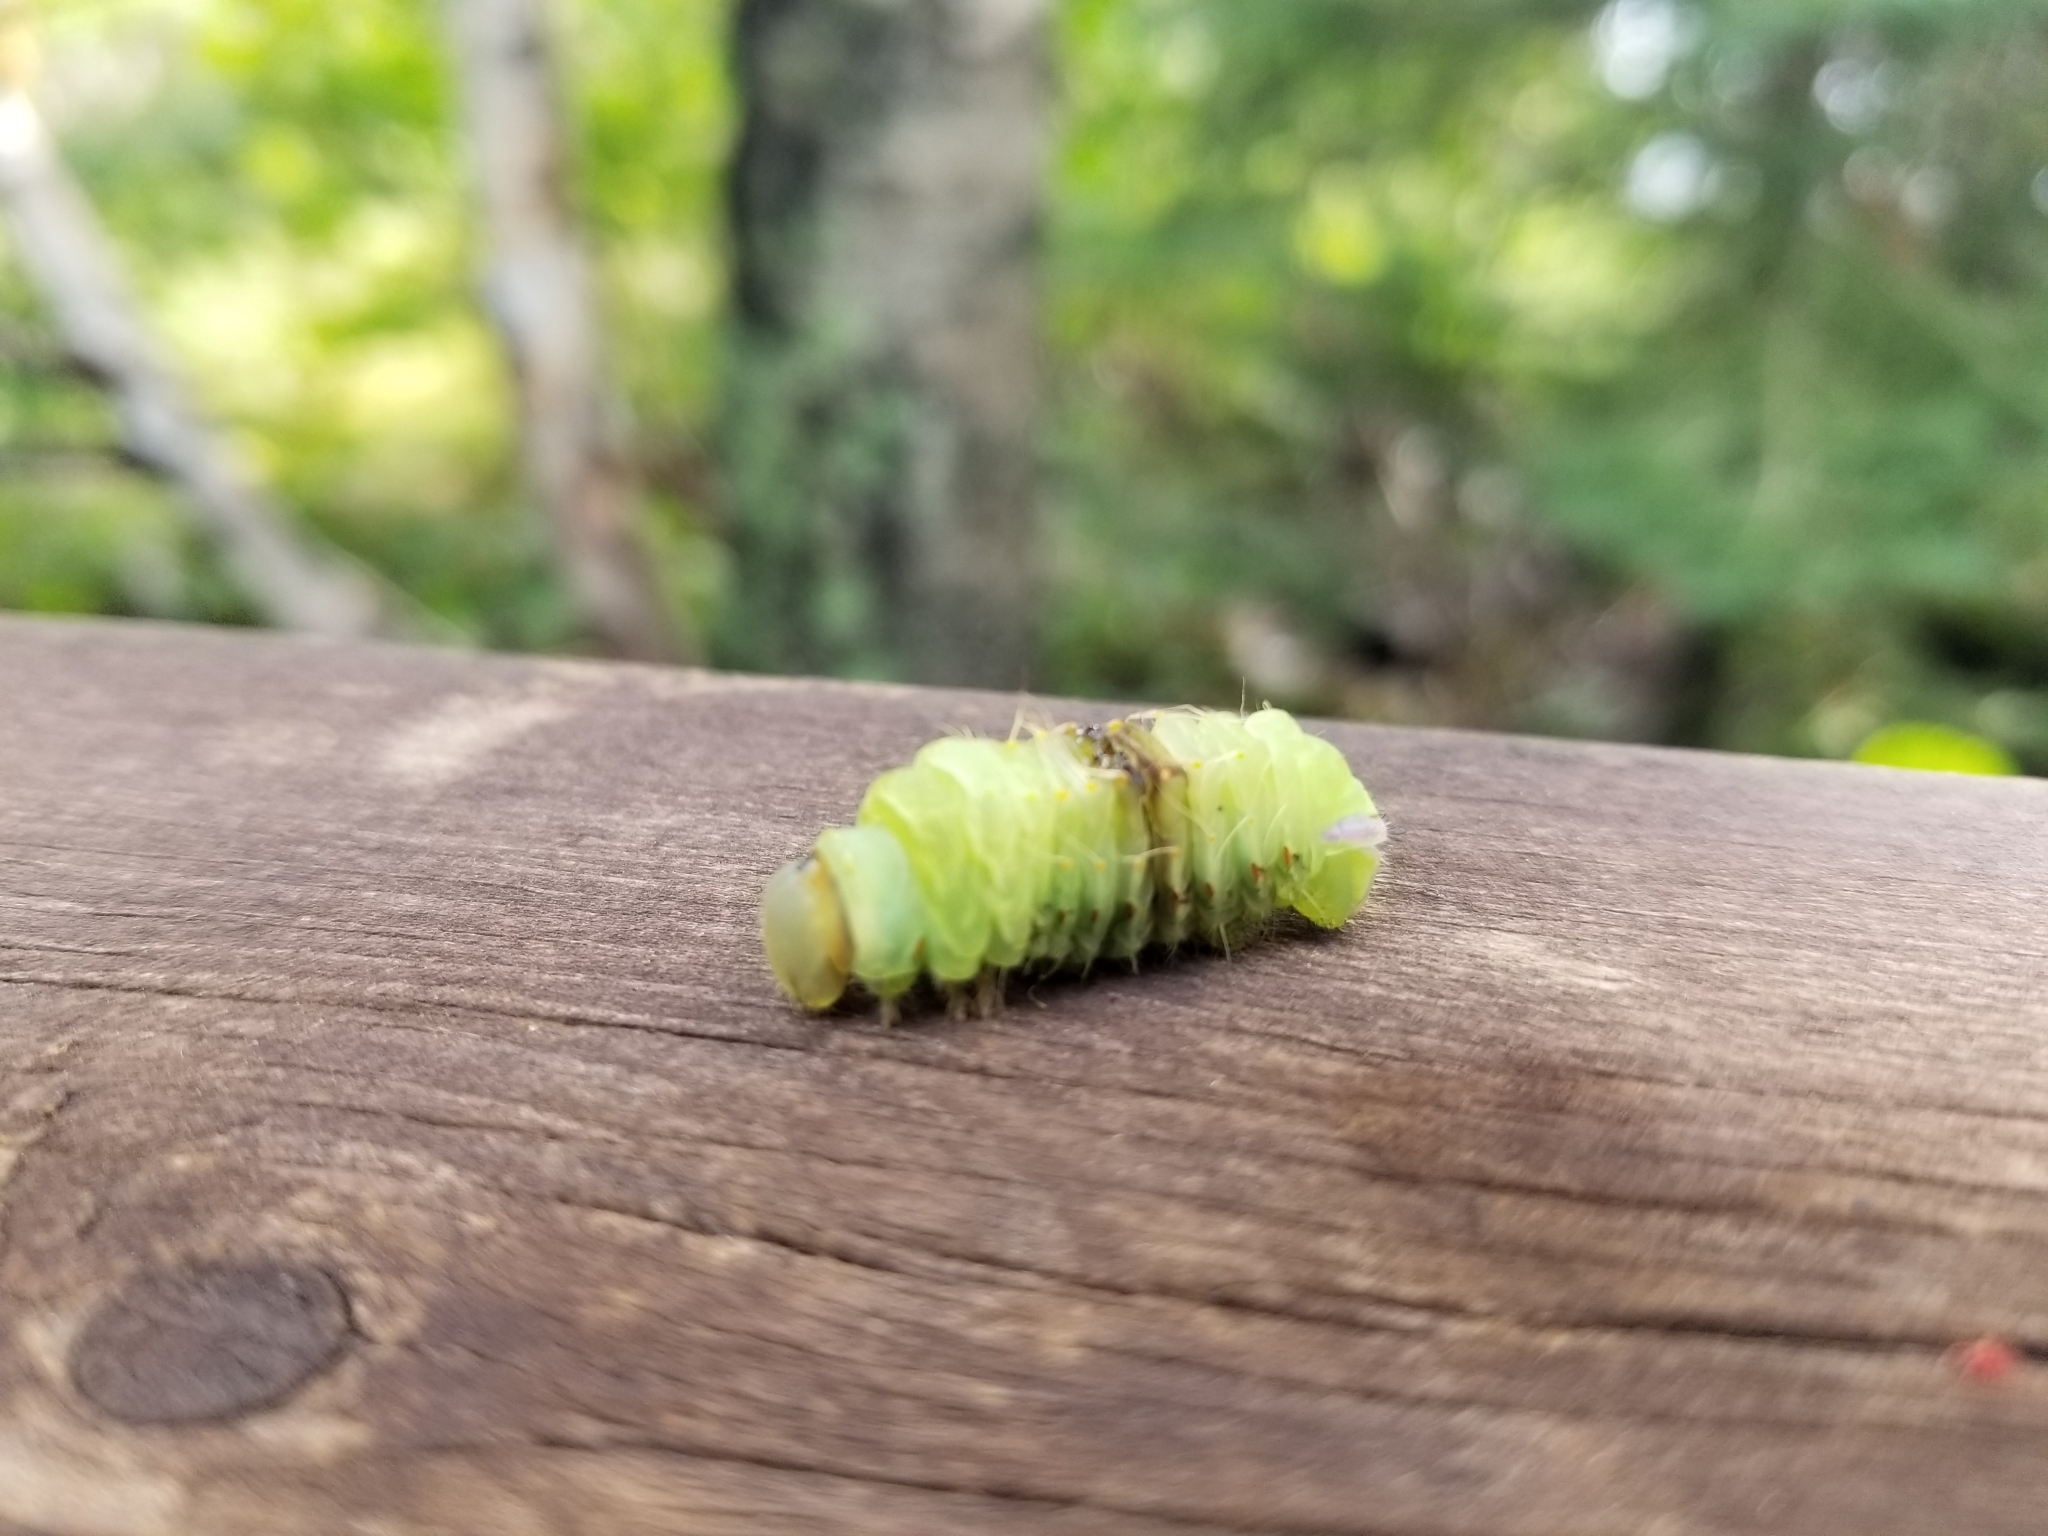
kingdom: Animalia
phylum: Arthropoda
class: Insecta
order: Lepidoptera
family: Saturniidae
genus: Antheraea
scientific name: Antheraea polyphemus
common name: Polyphemus moth
